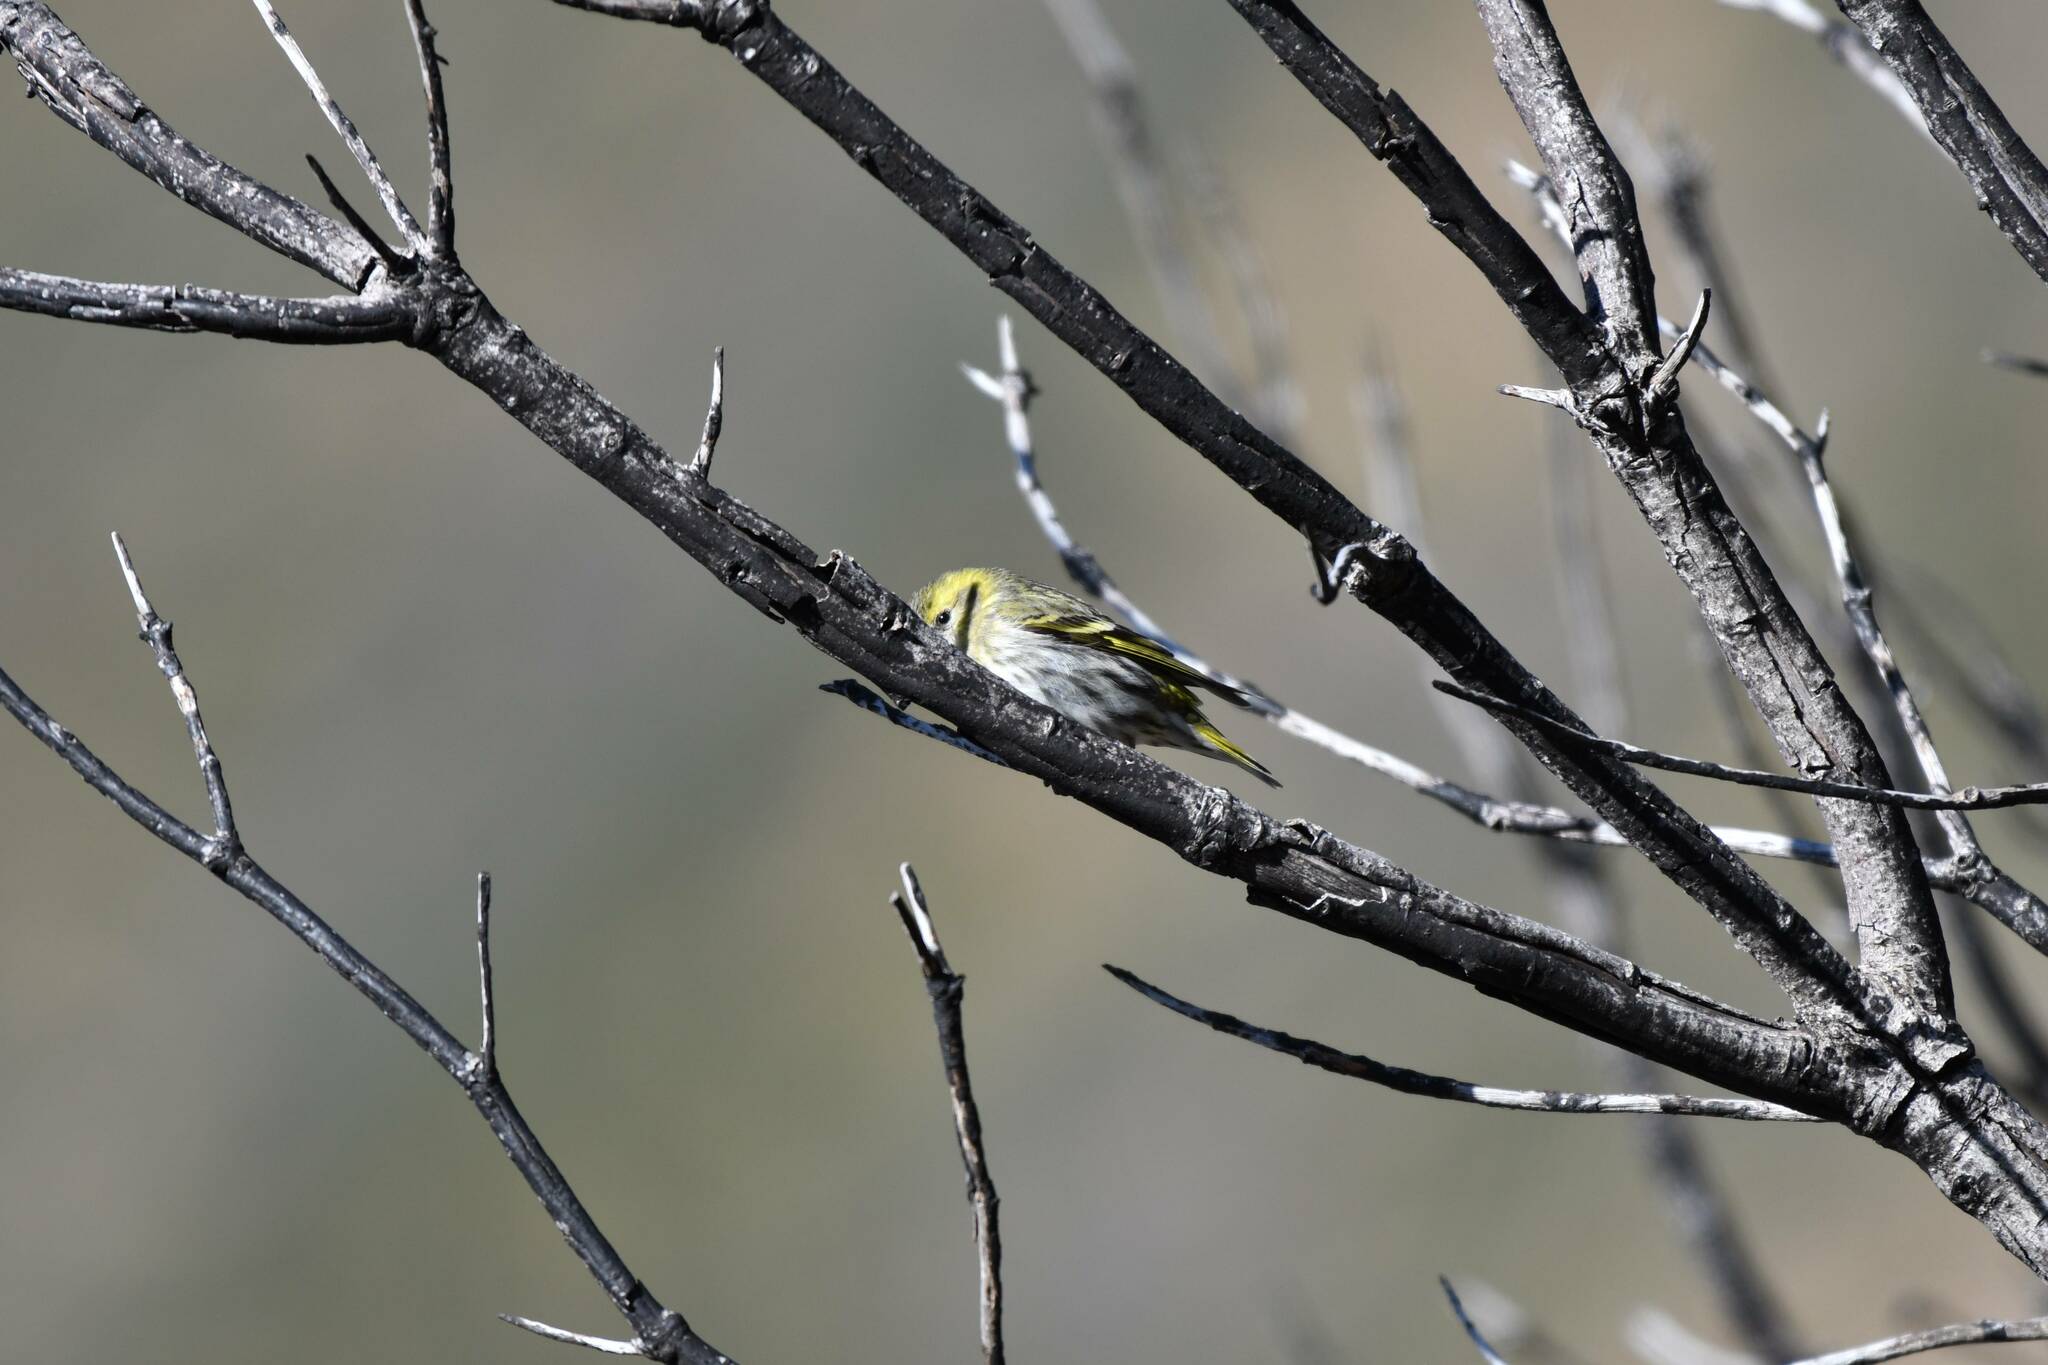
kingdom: Animalia
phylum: Chordata
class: Aves
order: Passeriformes
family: Fringillidae
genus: Spinus
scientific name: Spinus spinus
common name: Eurasian siskin
